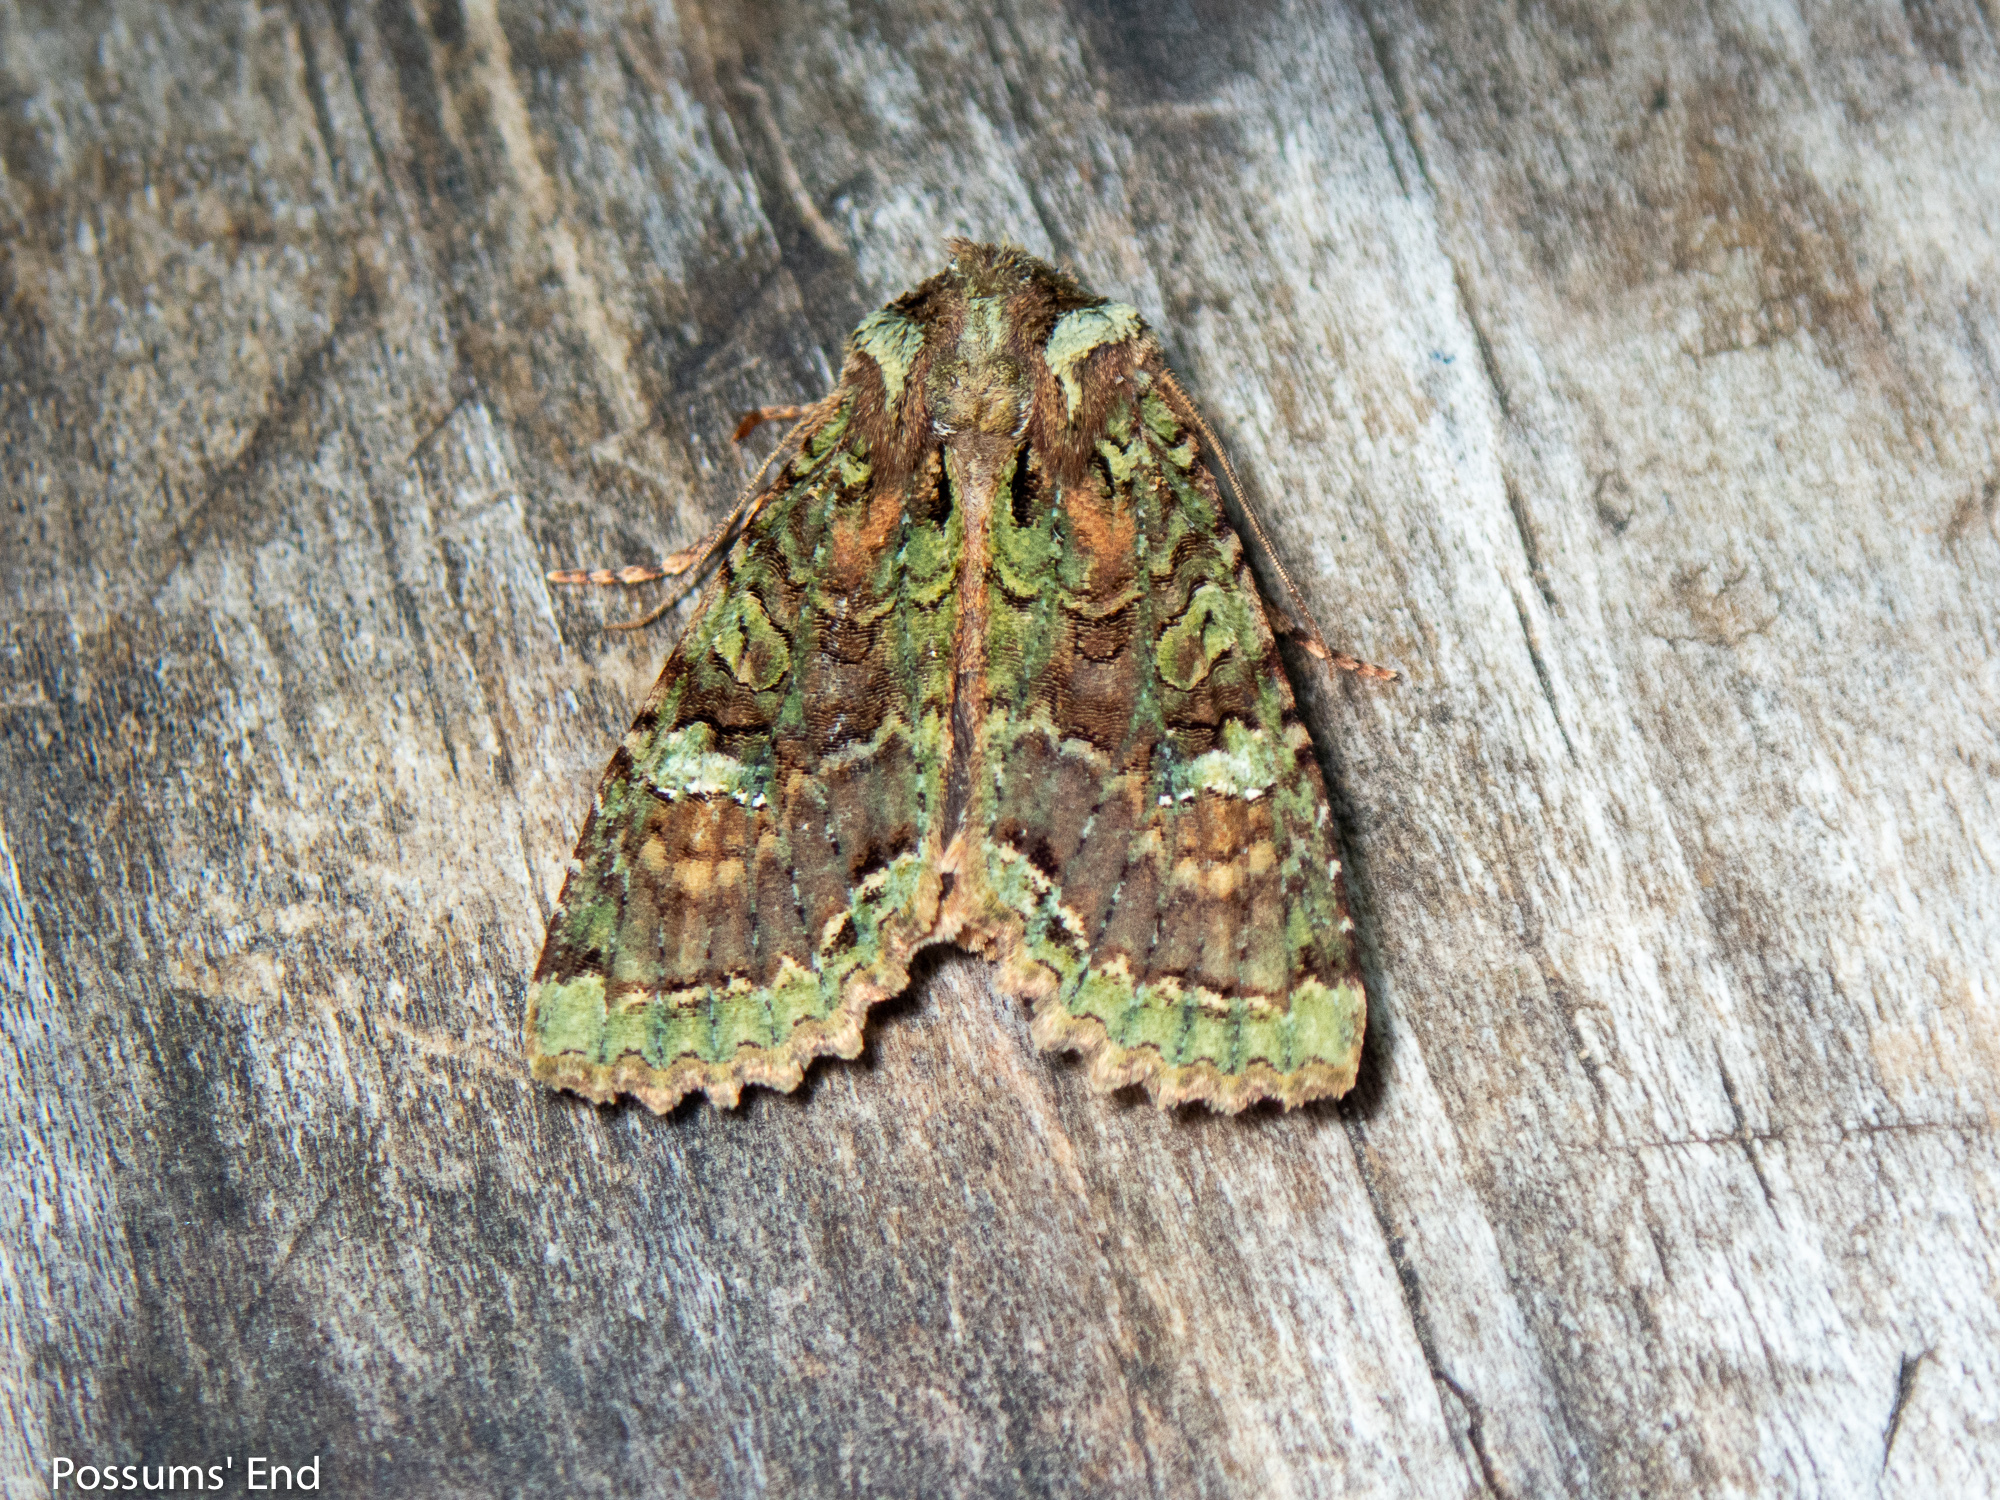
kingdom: Animalia
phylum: Arthropoda
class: Insecta
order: Lepidoptera
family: Noctuidae
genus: Meterana
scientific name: Meterana
